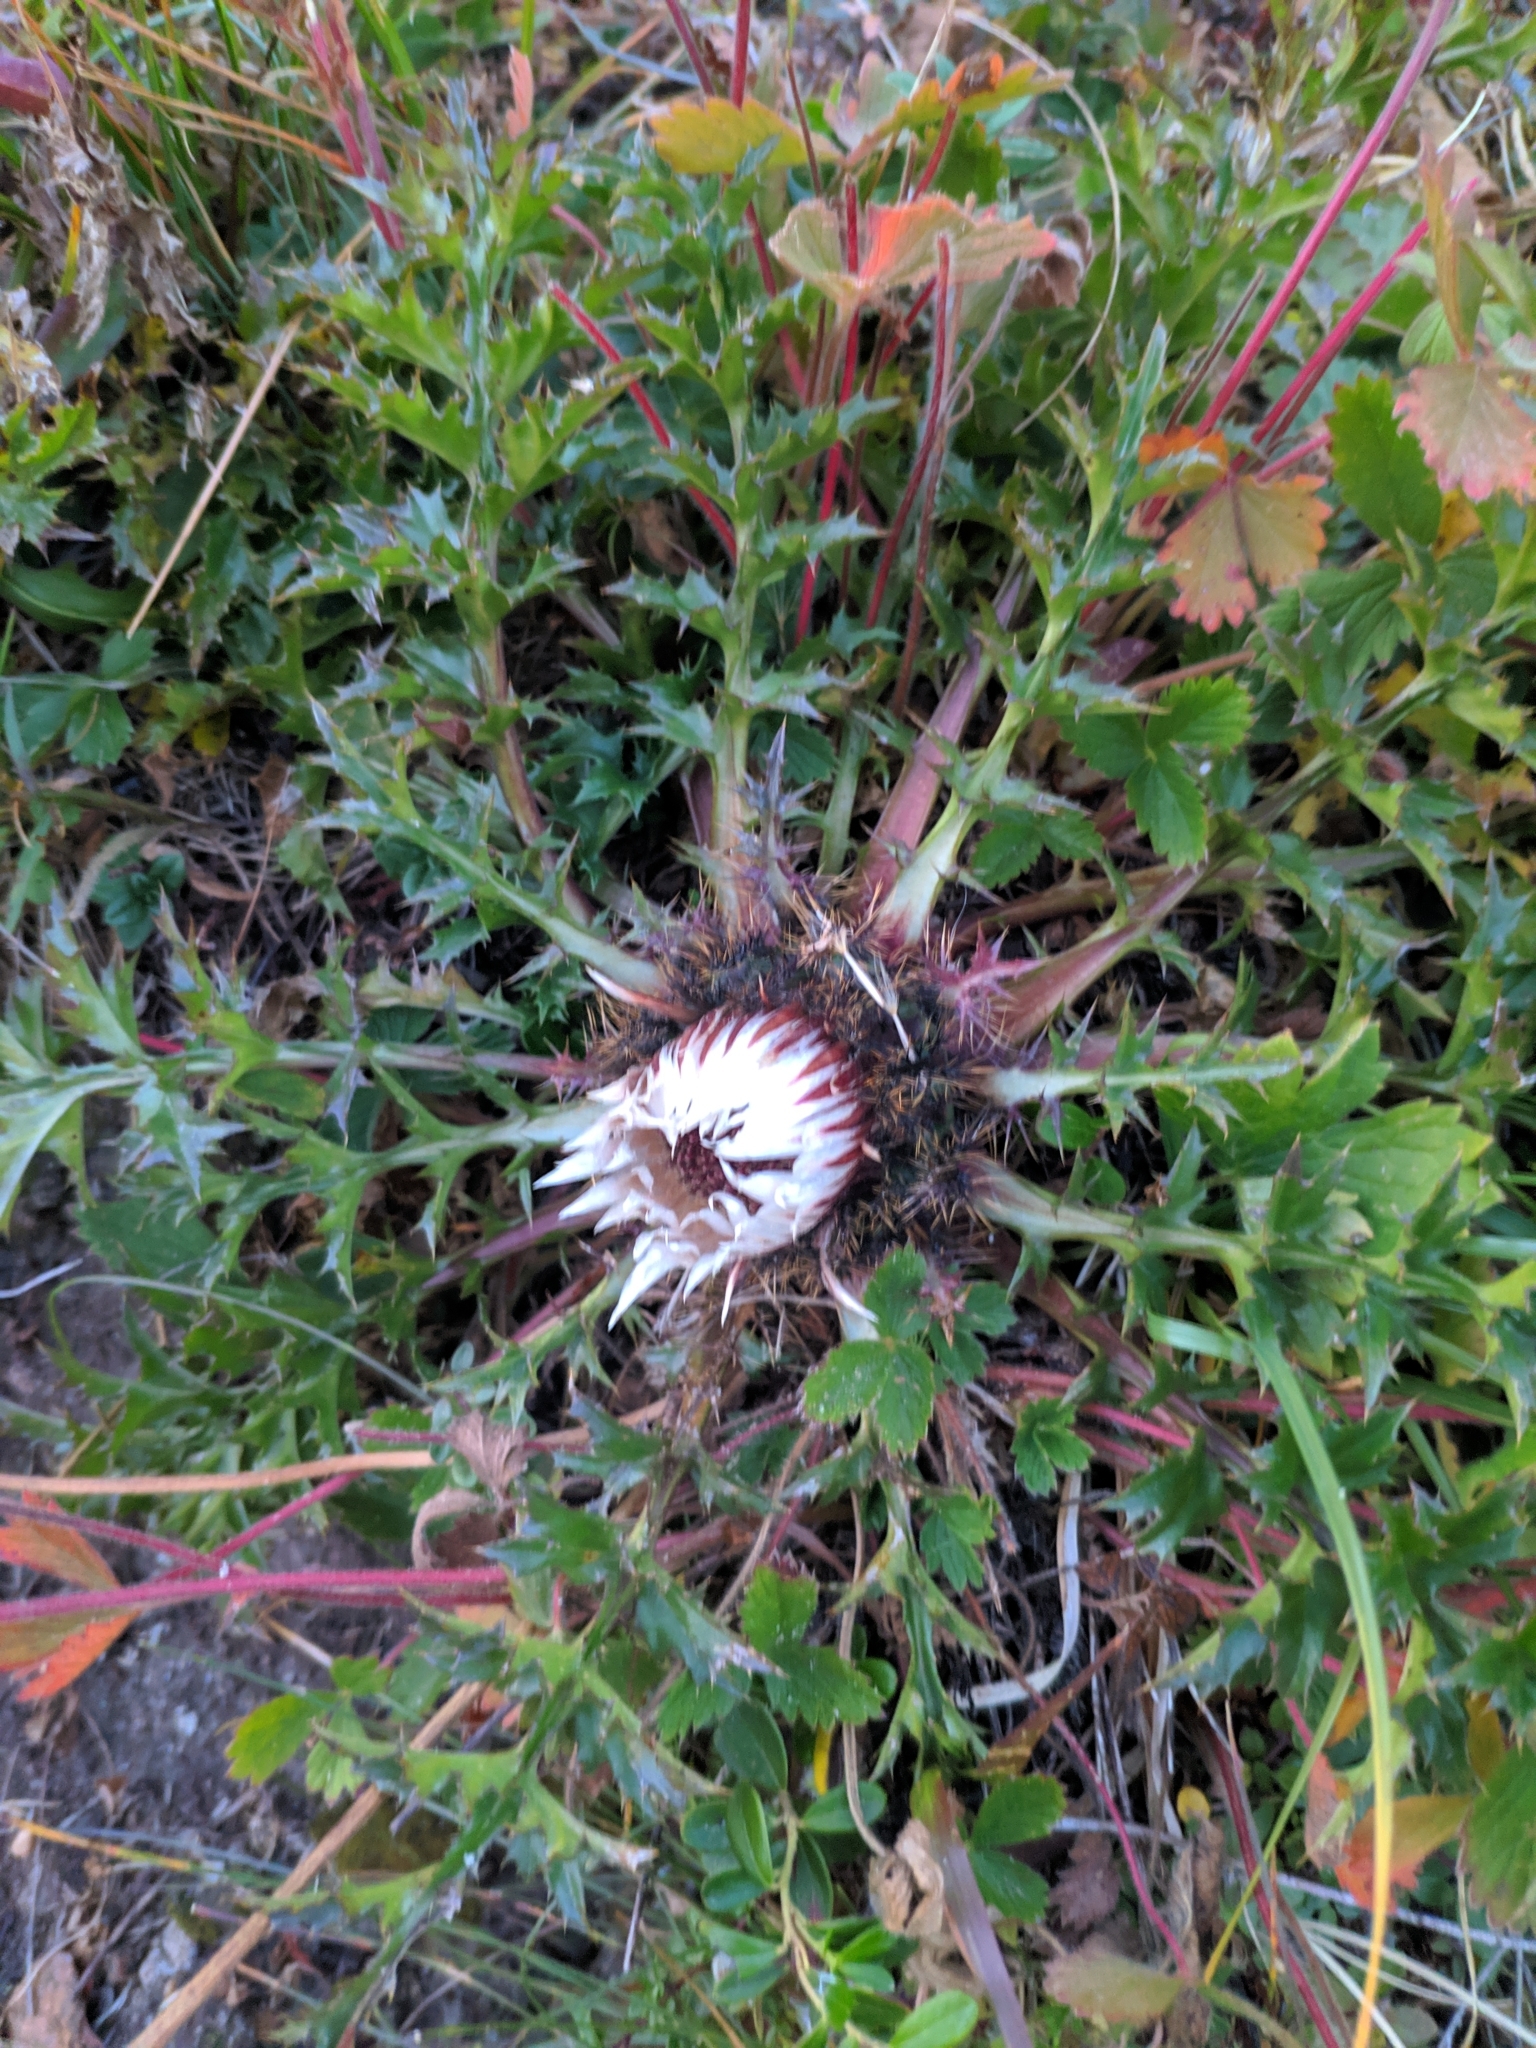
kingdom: Plantae
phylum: Tracheophyta
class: Magnoliopsida
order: Asterales
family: Asteraceae
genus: Carlina
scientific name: Carlina acaulis
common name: Stemless carline thistle
